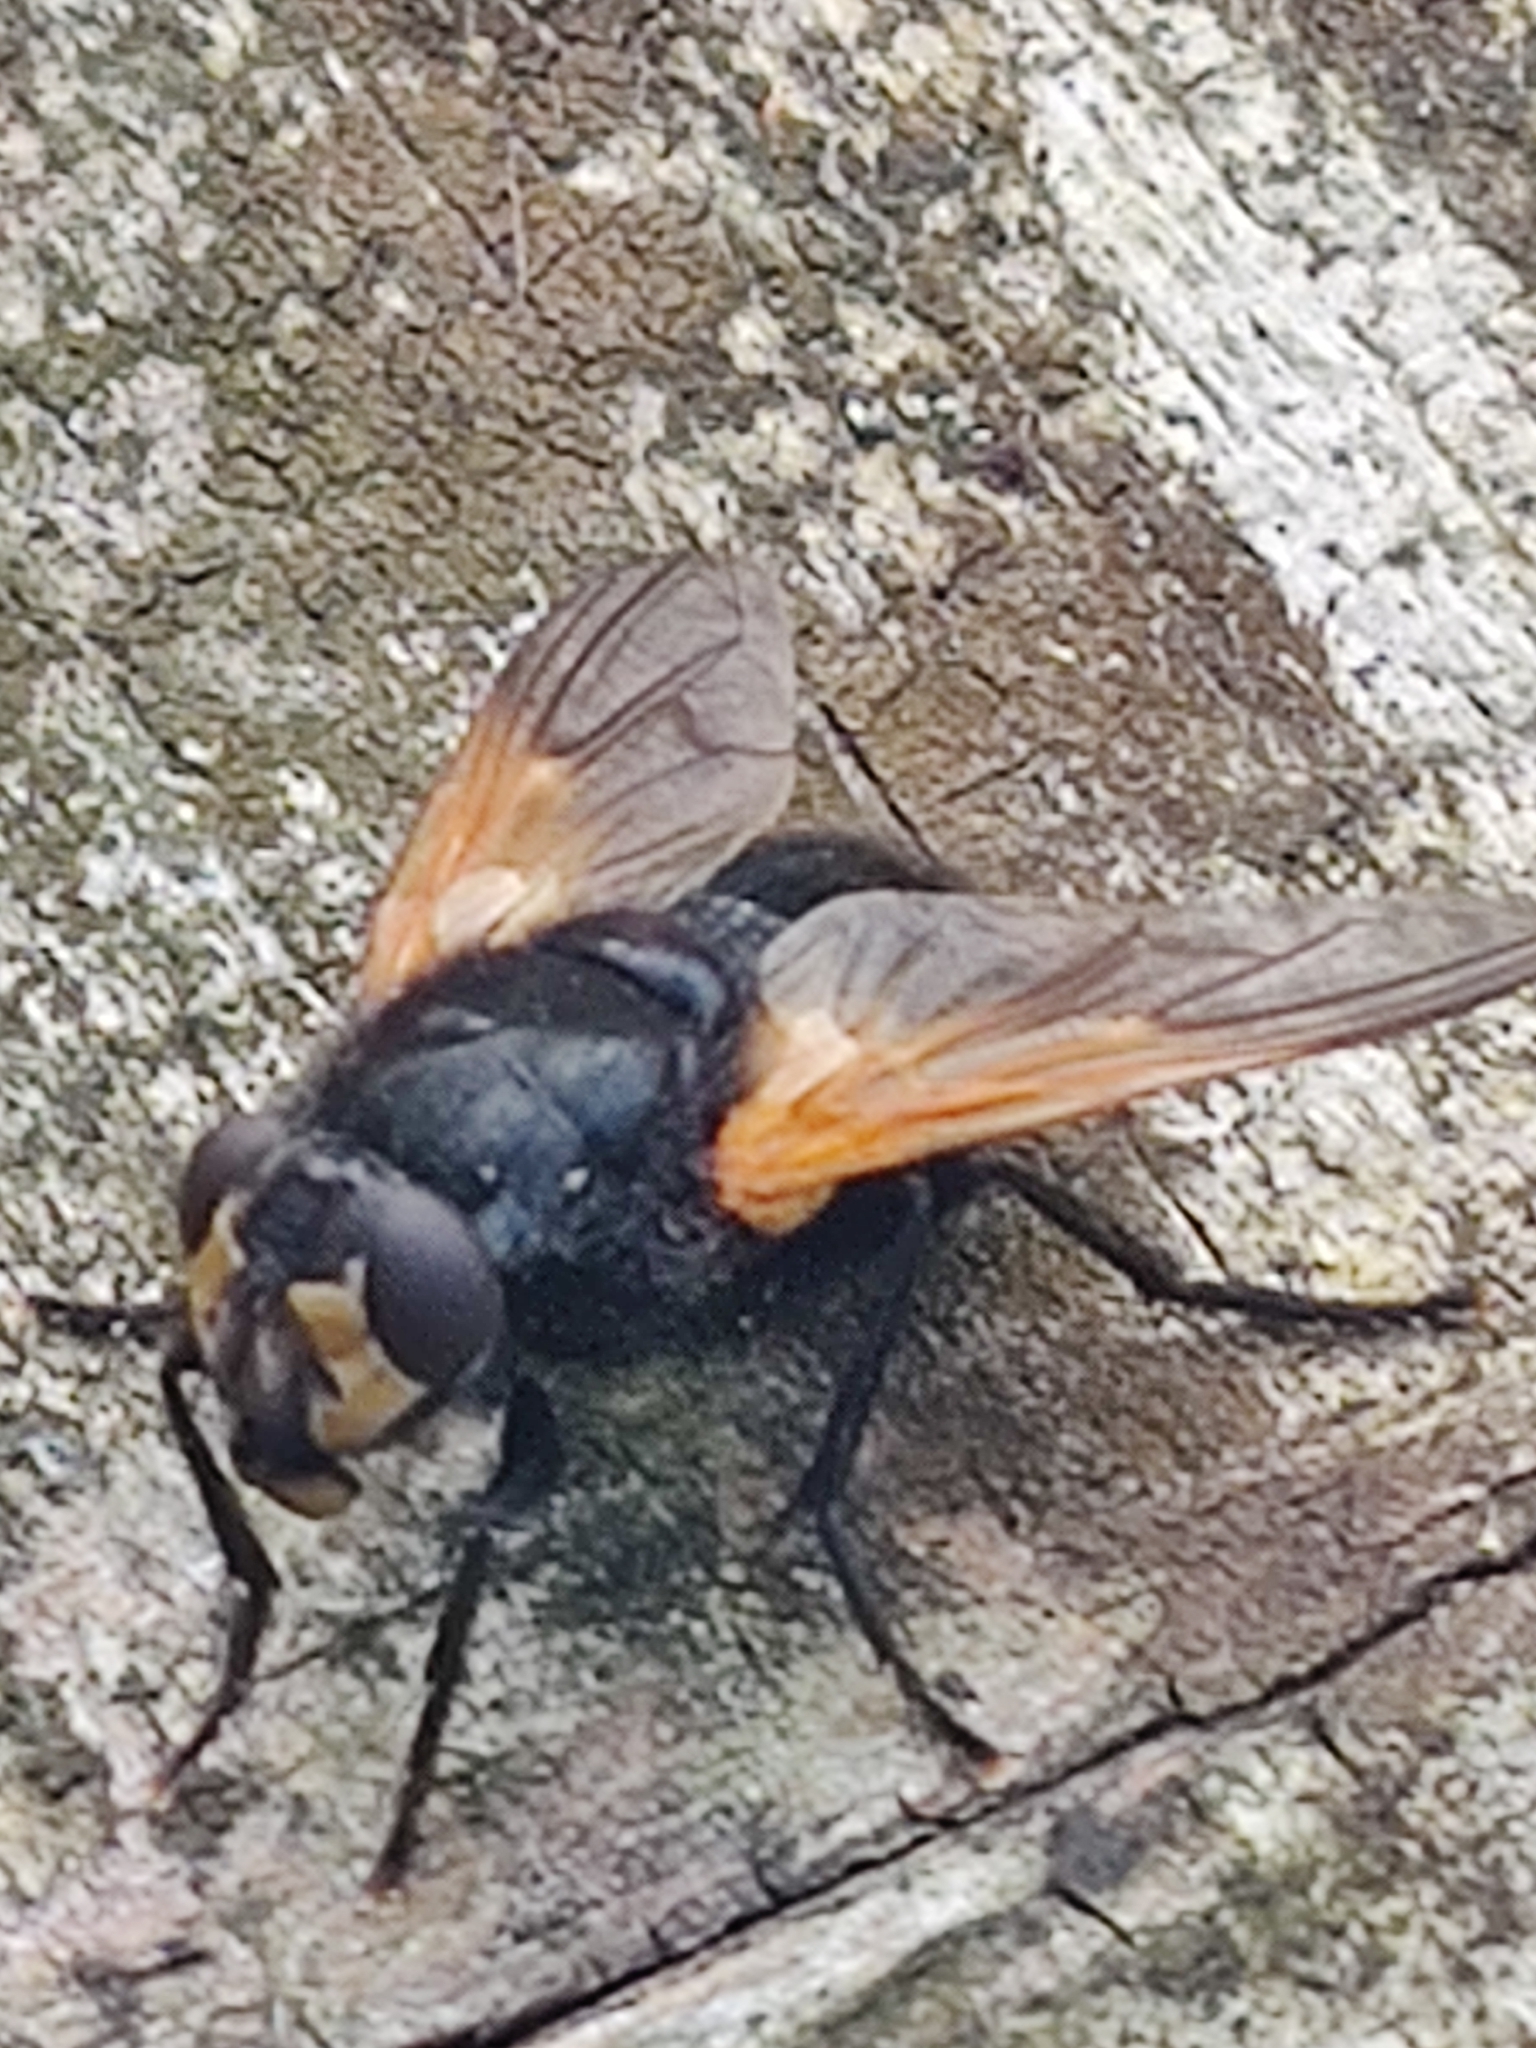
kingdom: Animalia
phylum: Arthropoda
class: Insecta
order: Diptera
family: Muscidae
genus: Mesembrina
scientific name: Mesembrina meridiana
